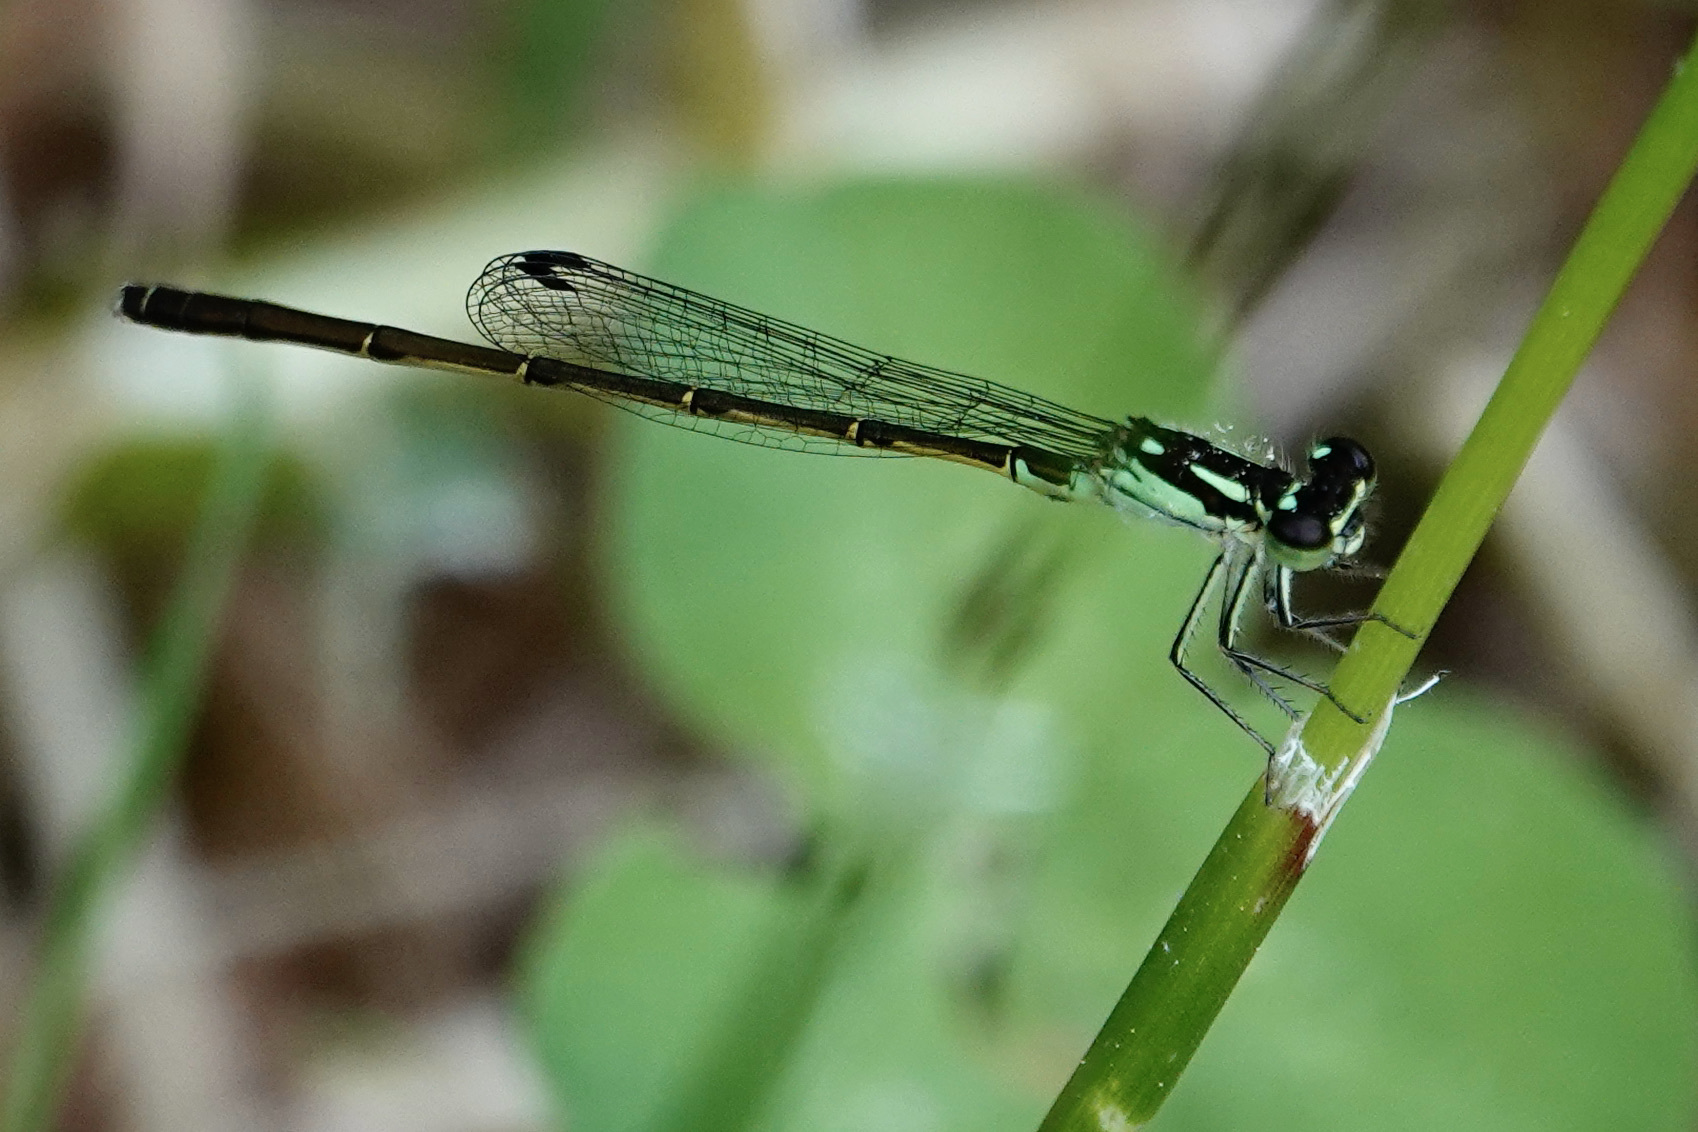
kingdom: Animalia
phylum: Arthropoda
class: Insecta
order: Odonata
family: Coenagrionidae
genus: Ischnura
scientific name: Ischnura posita
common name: Fragile forktail
